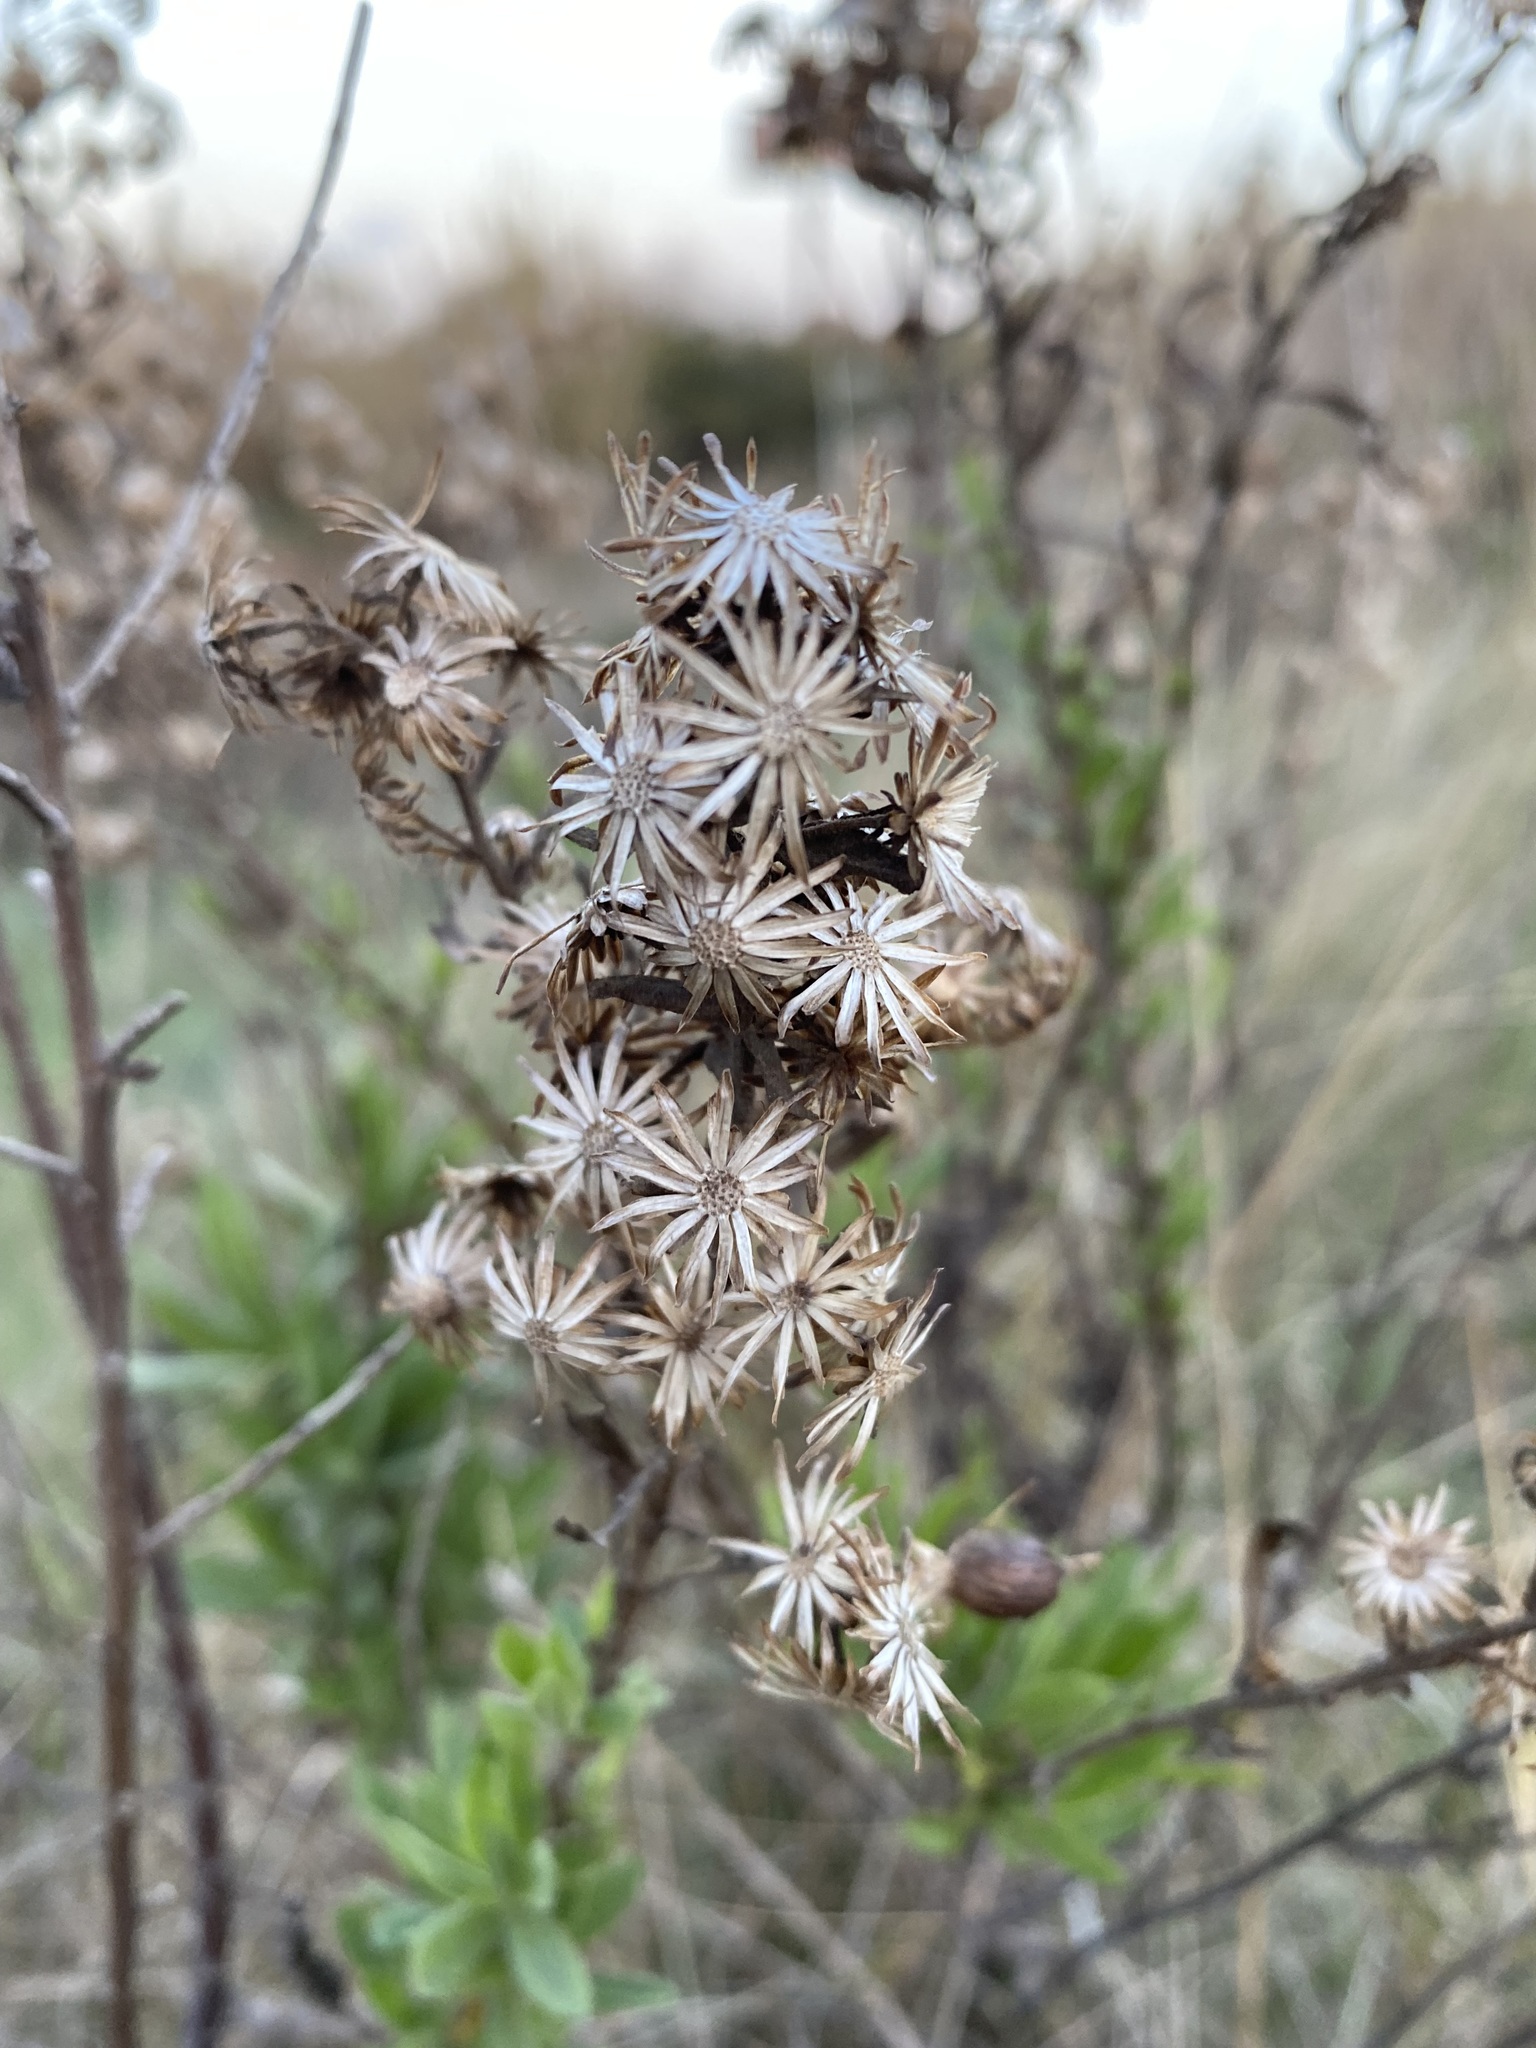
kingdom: Plantae
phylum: Tracheophyta
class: Magnoliopsida
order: Asterales
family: Asteraceae
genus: Dittrichia
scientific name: Dittrichia viscosa
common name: Woody fleabane
